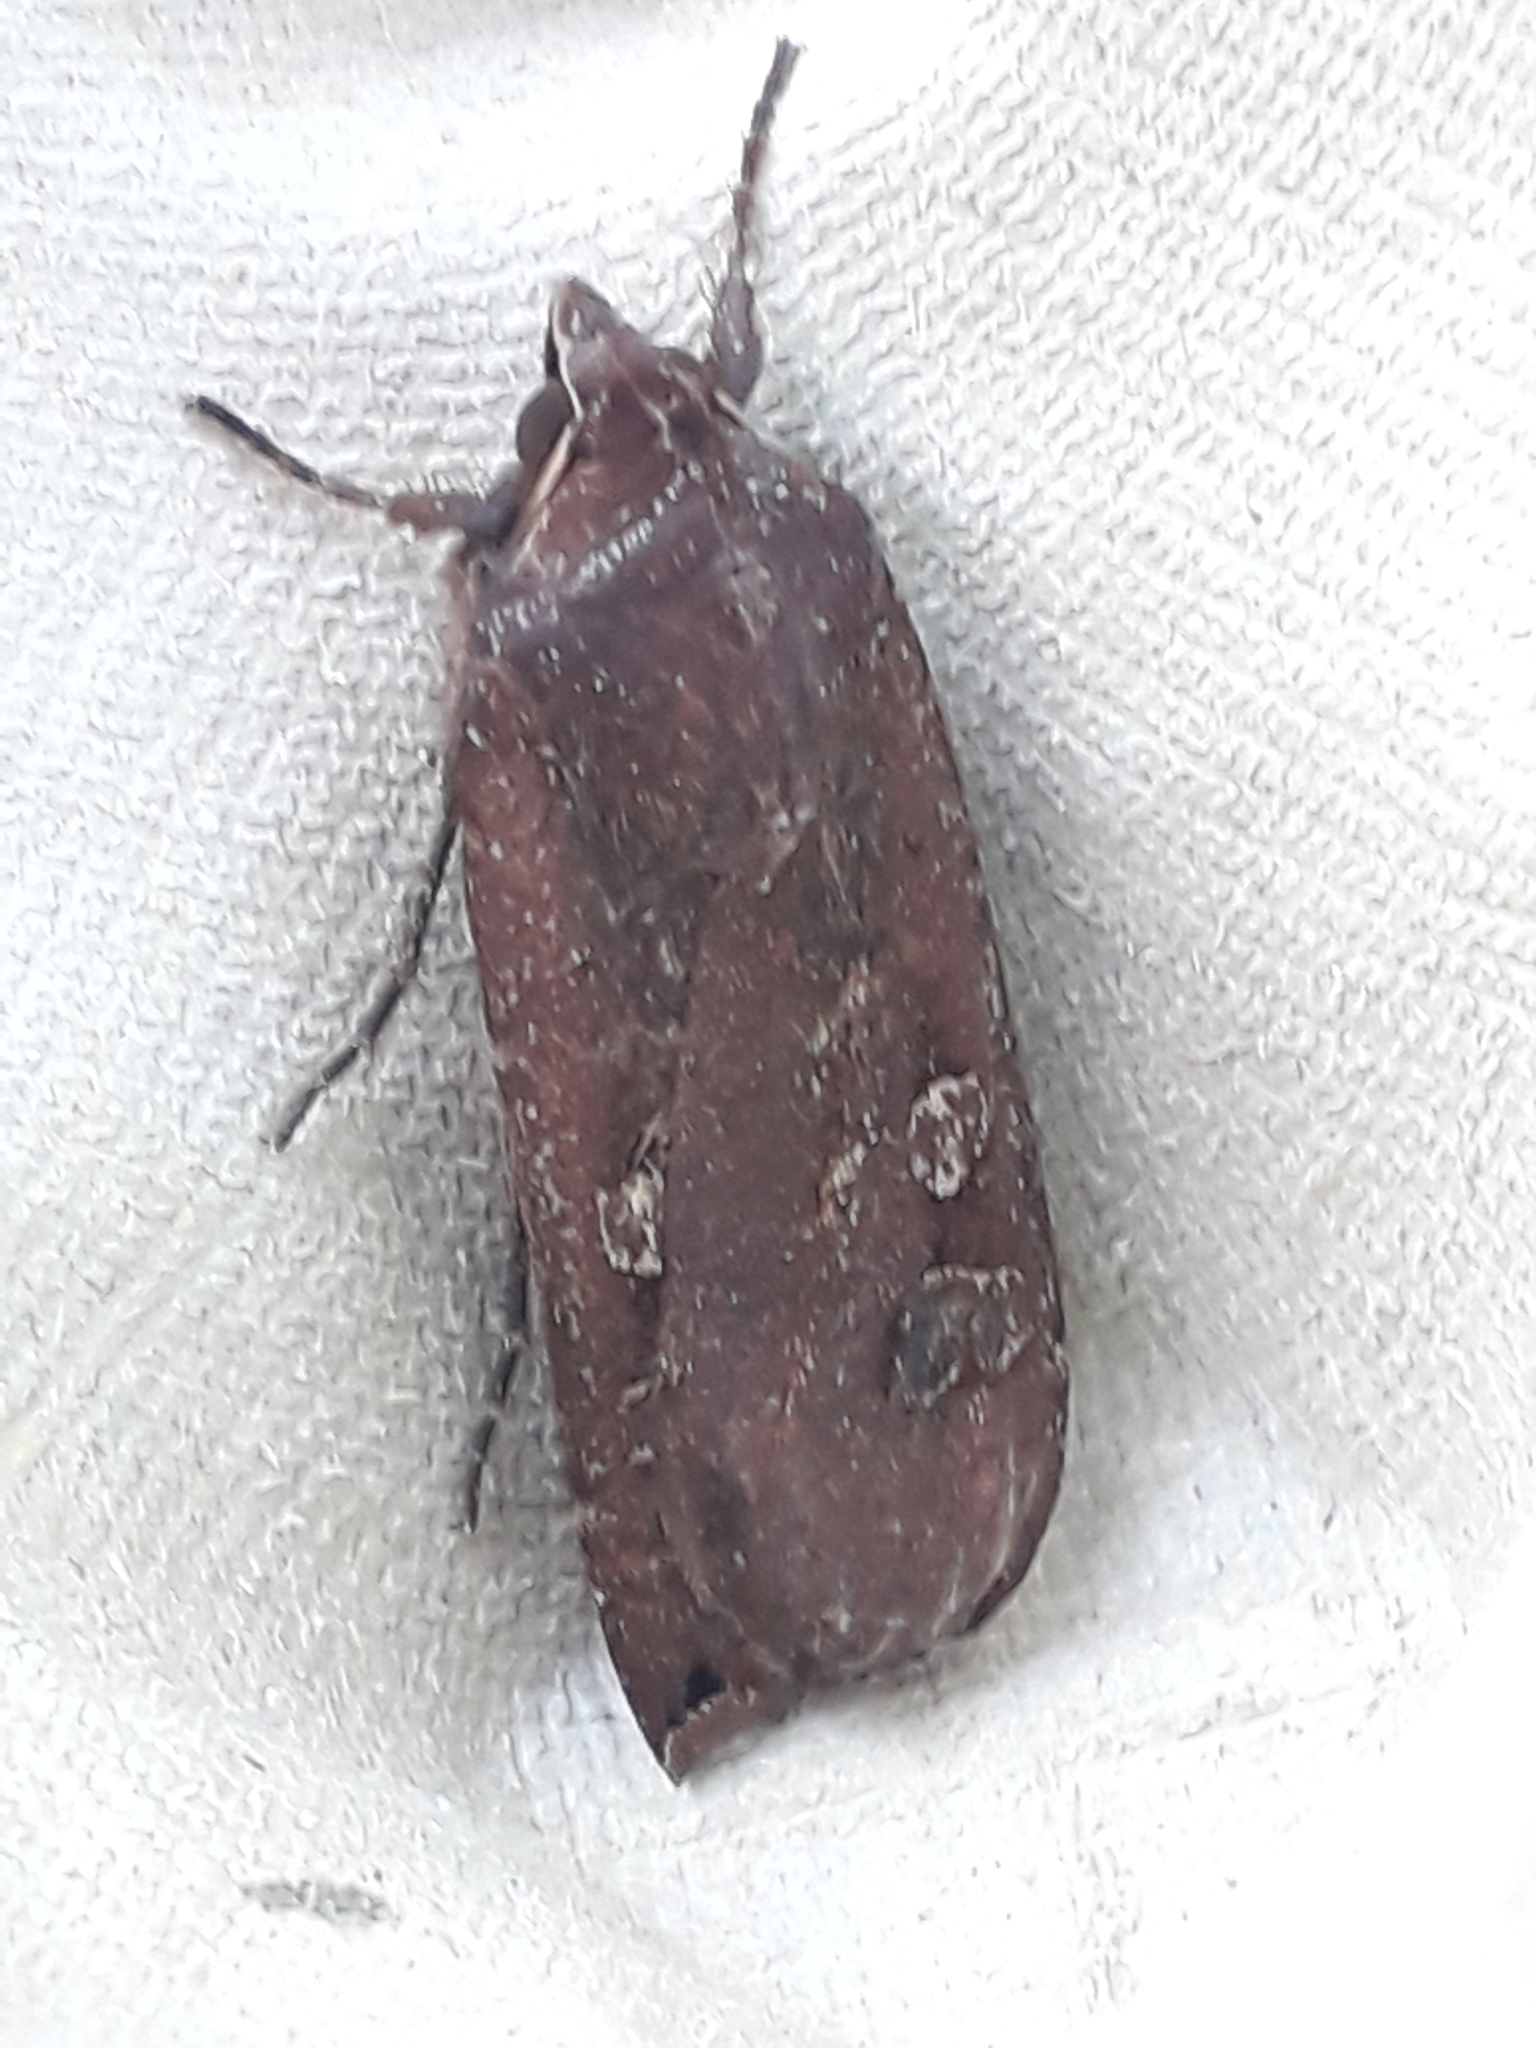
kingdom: Animalia
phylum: Arthropoda
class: Insecta
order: Lepidoptera
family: Noctuidae
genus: Noctua
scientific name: Noctua pronuba
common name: Large yellow underwing
